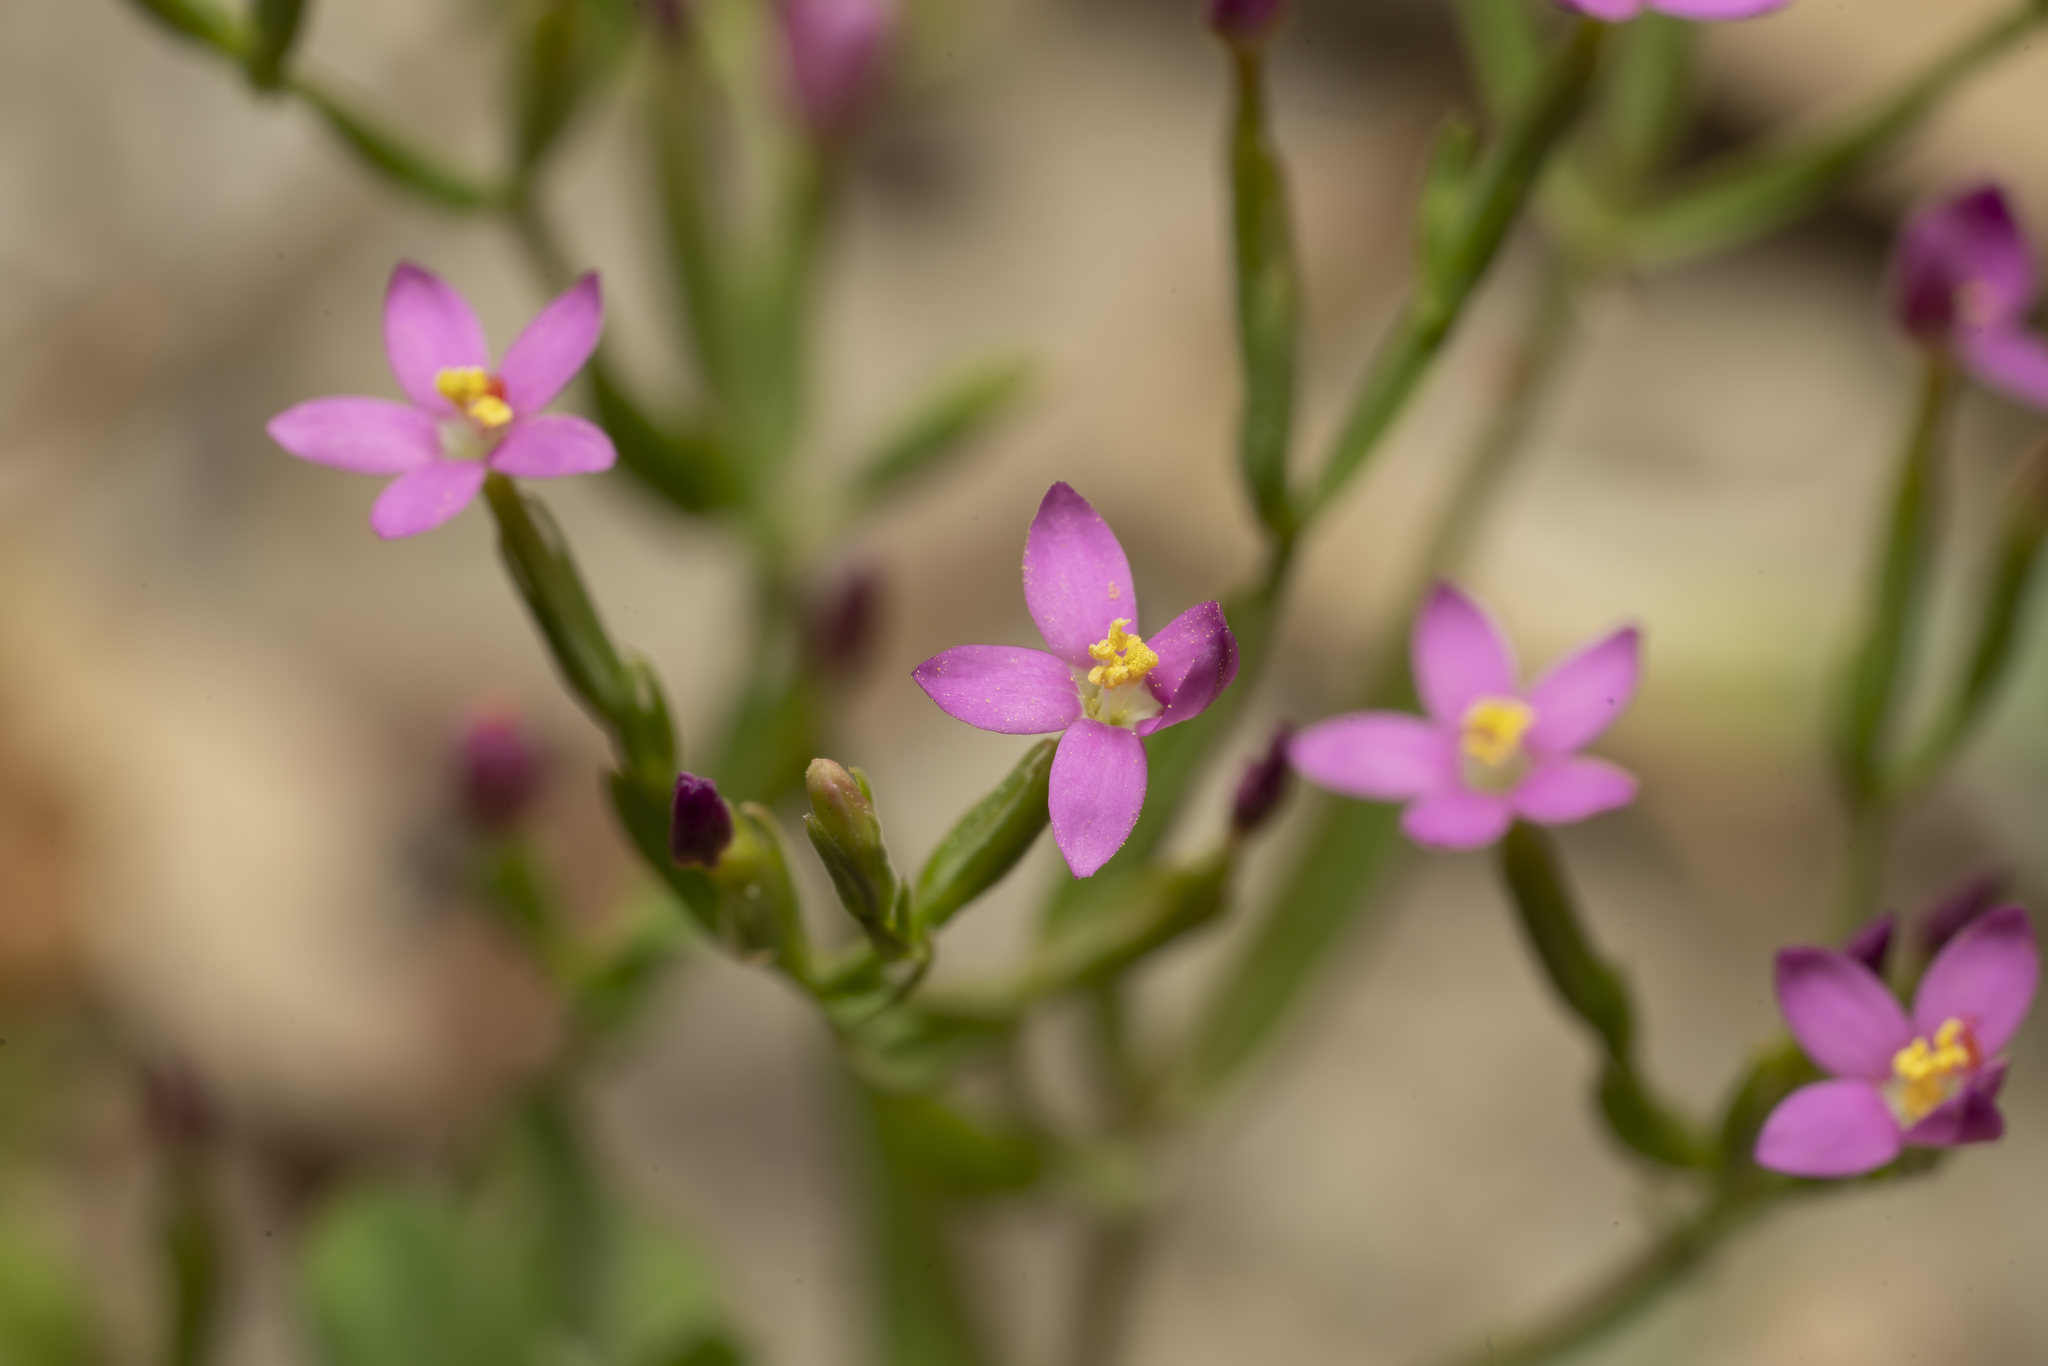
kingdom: Plantae
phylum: Tracheophyta
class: Magnoliopsida
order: Gentianales
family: Gentianaceae
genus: Centaurium
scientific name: Centaurium tenuiflorum
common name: Slender centaury
